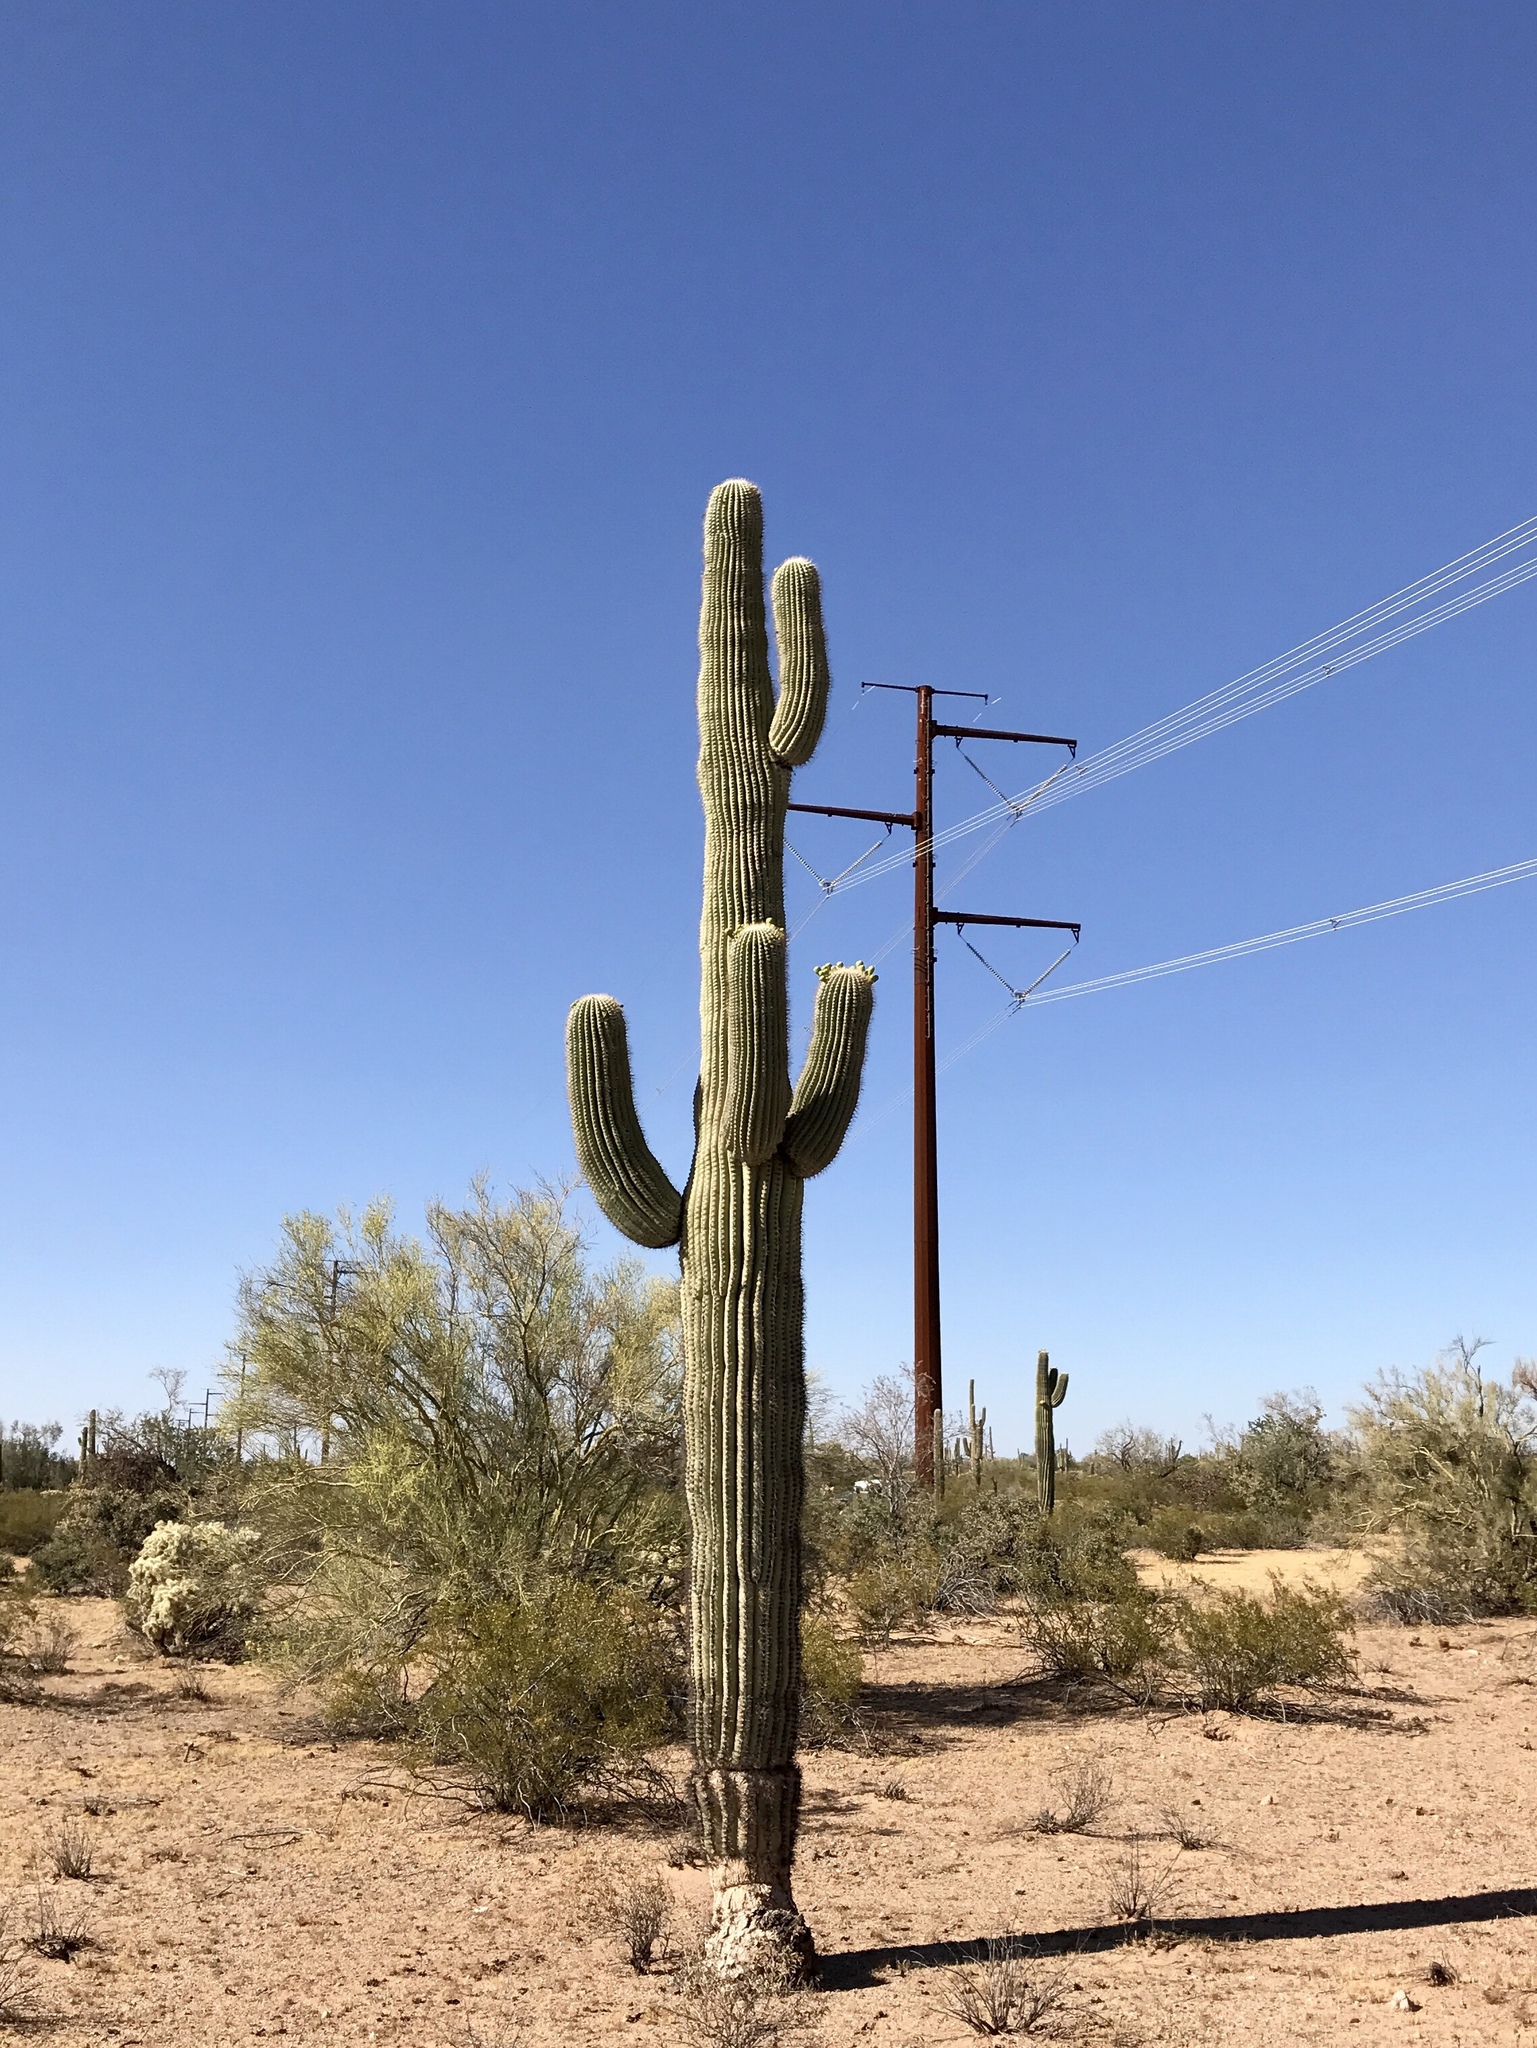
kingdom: Plantae
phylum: Tracheophyta
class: Magnoliopsida
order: Caryophyllales
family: Cactaceae
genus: Carnegiea
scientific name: Carnegiea gigantea
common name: Saguaro
